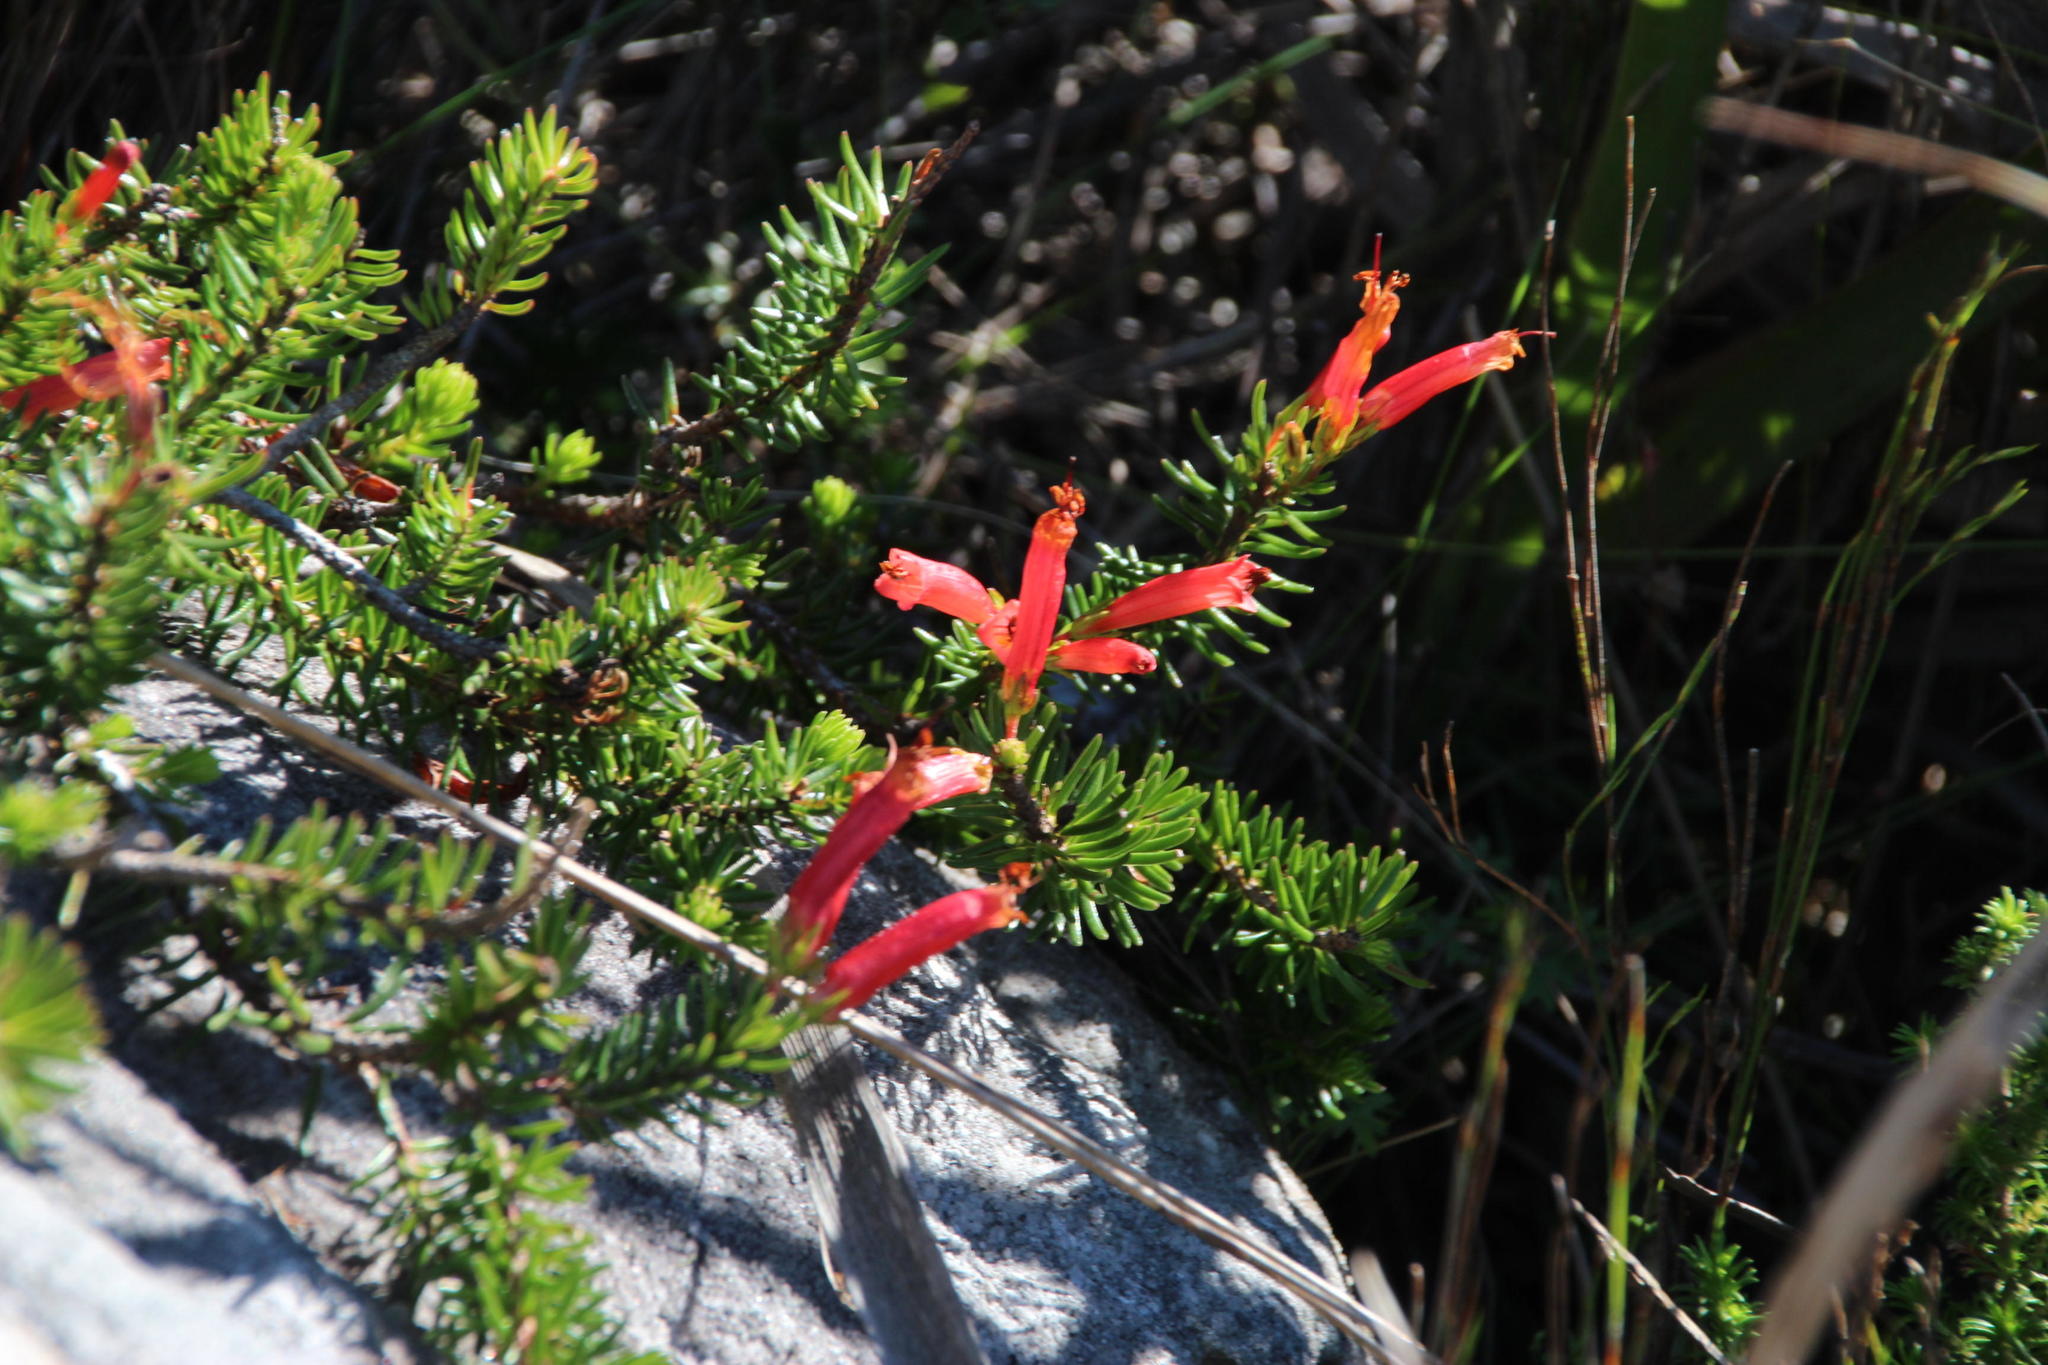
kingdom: Plantae
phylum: Tracheophyta
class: Magnoliopsida
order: Ericales
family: Ericaceae
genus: Erica
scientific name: Erica nevillei
